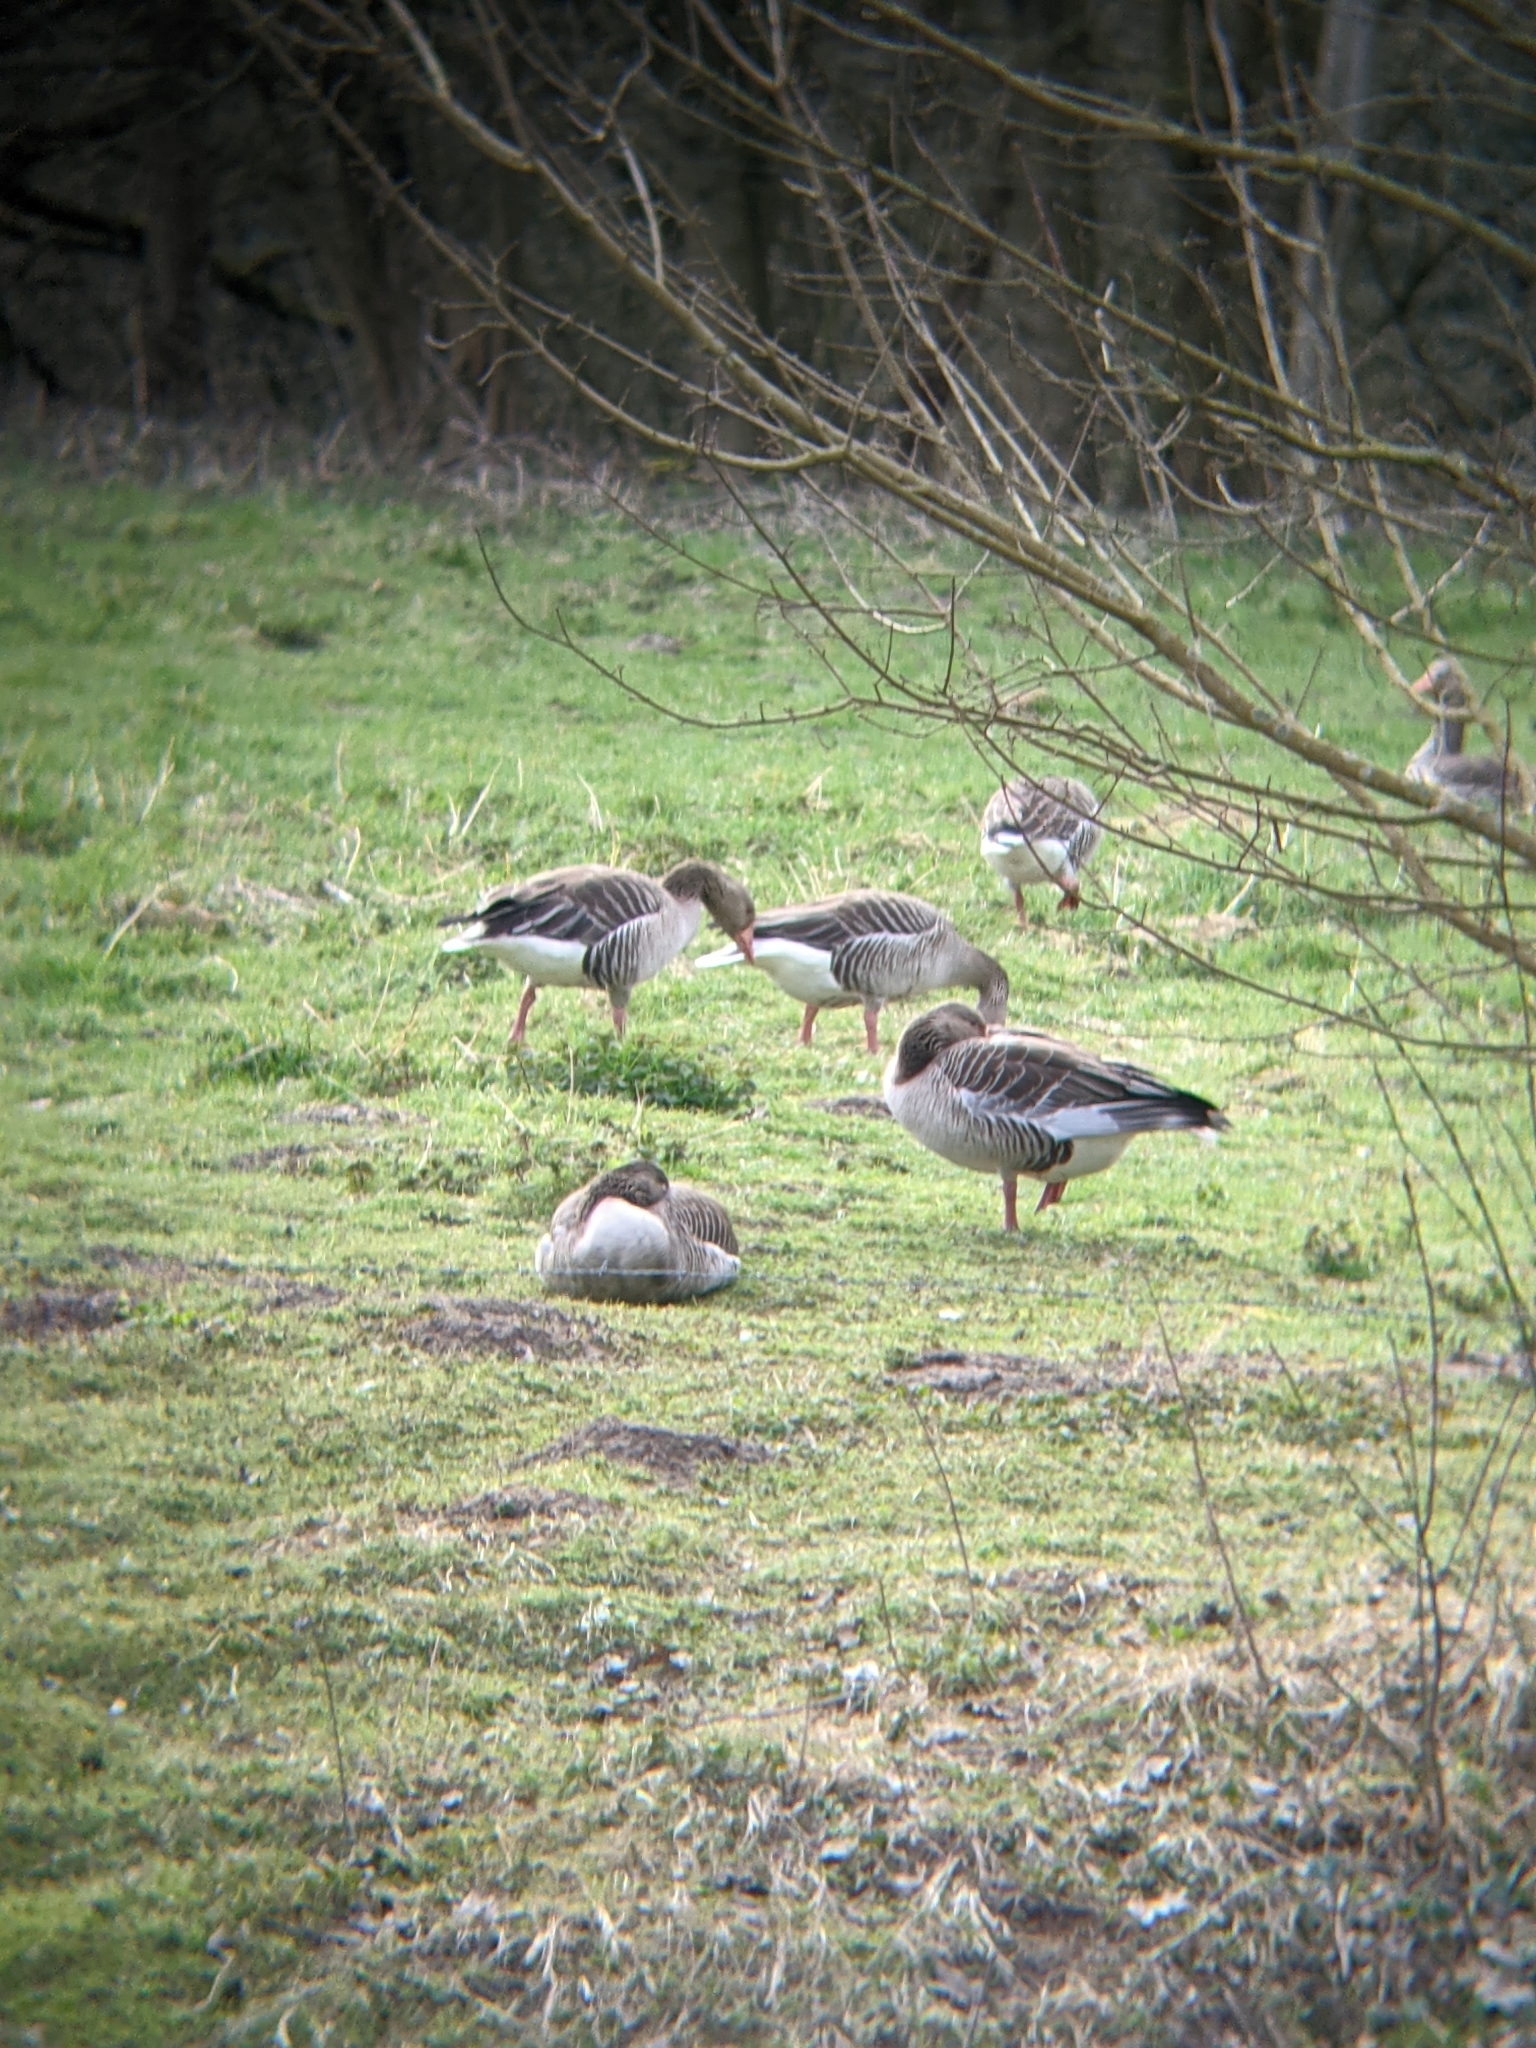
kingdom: Animalia
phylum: Chordata
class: Aves
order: Anseriformes
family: Anatidae
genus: Anser
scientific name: Anser anser
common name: Greylag goose
